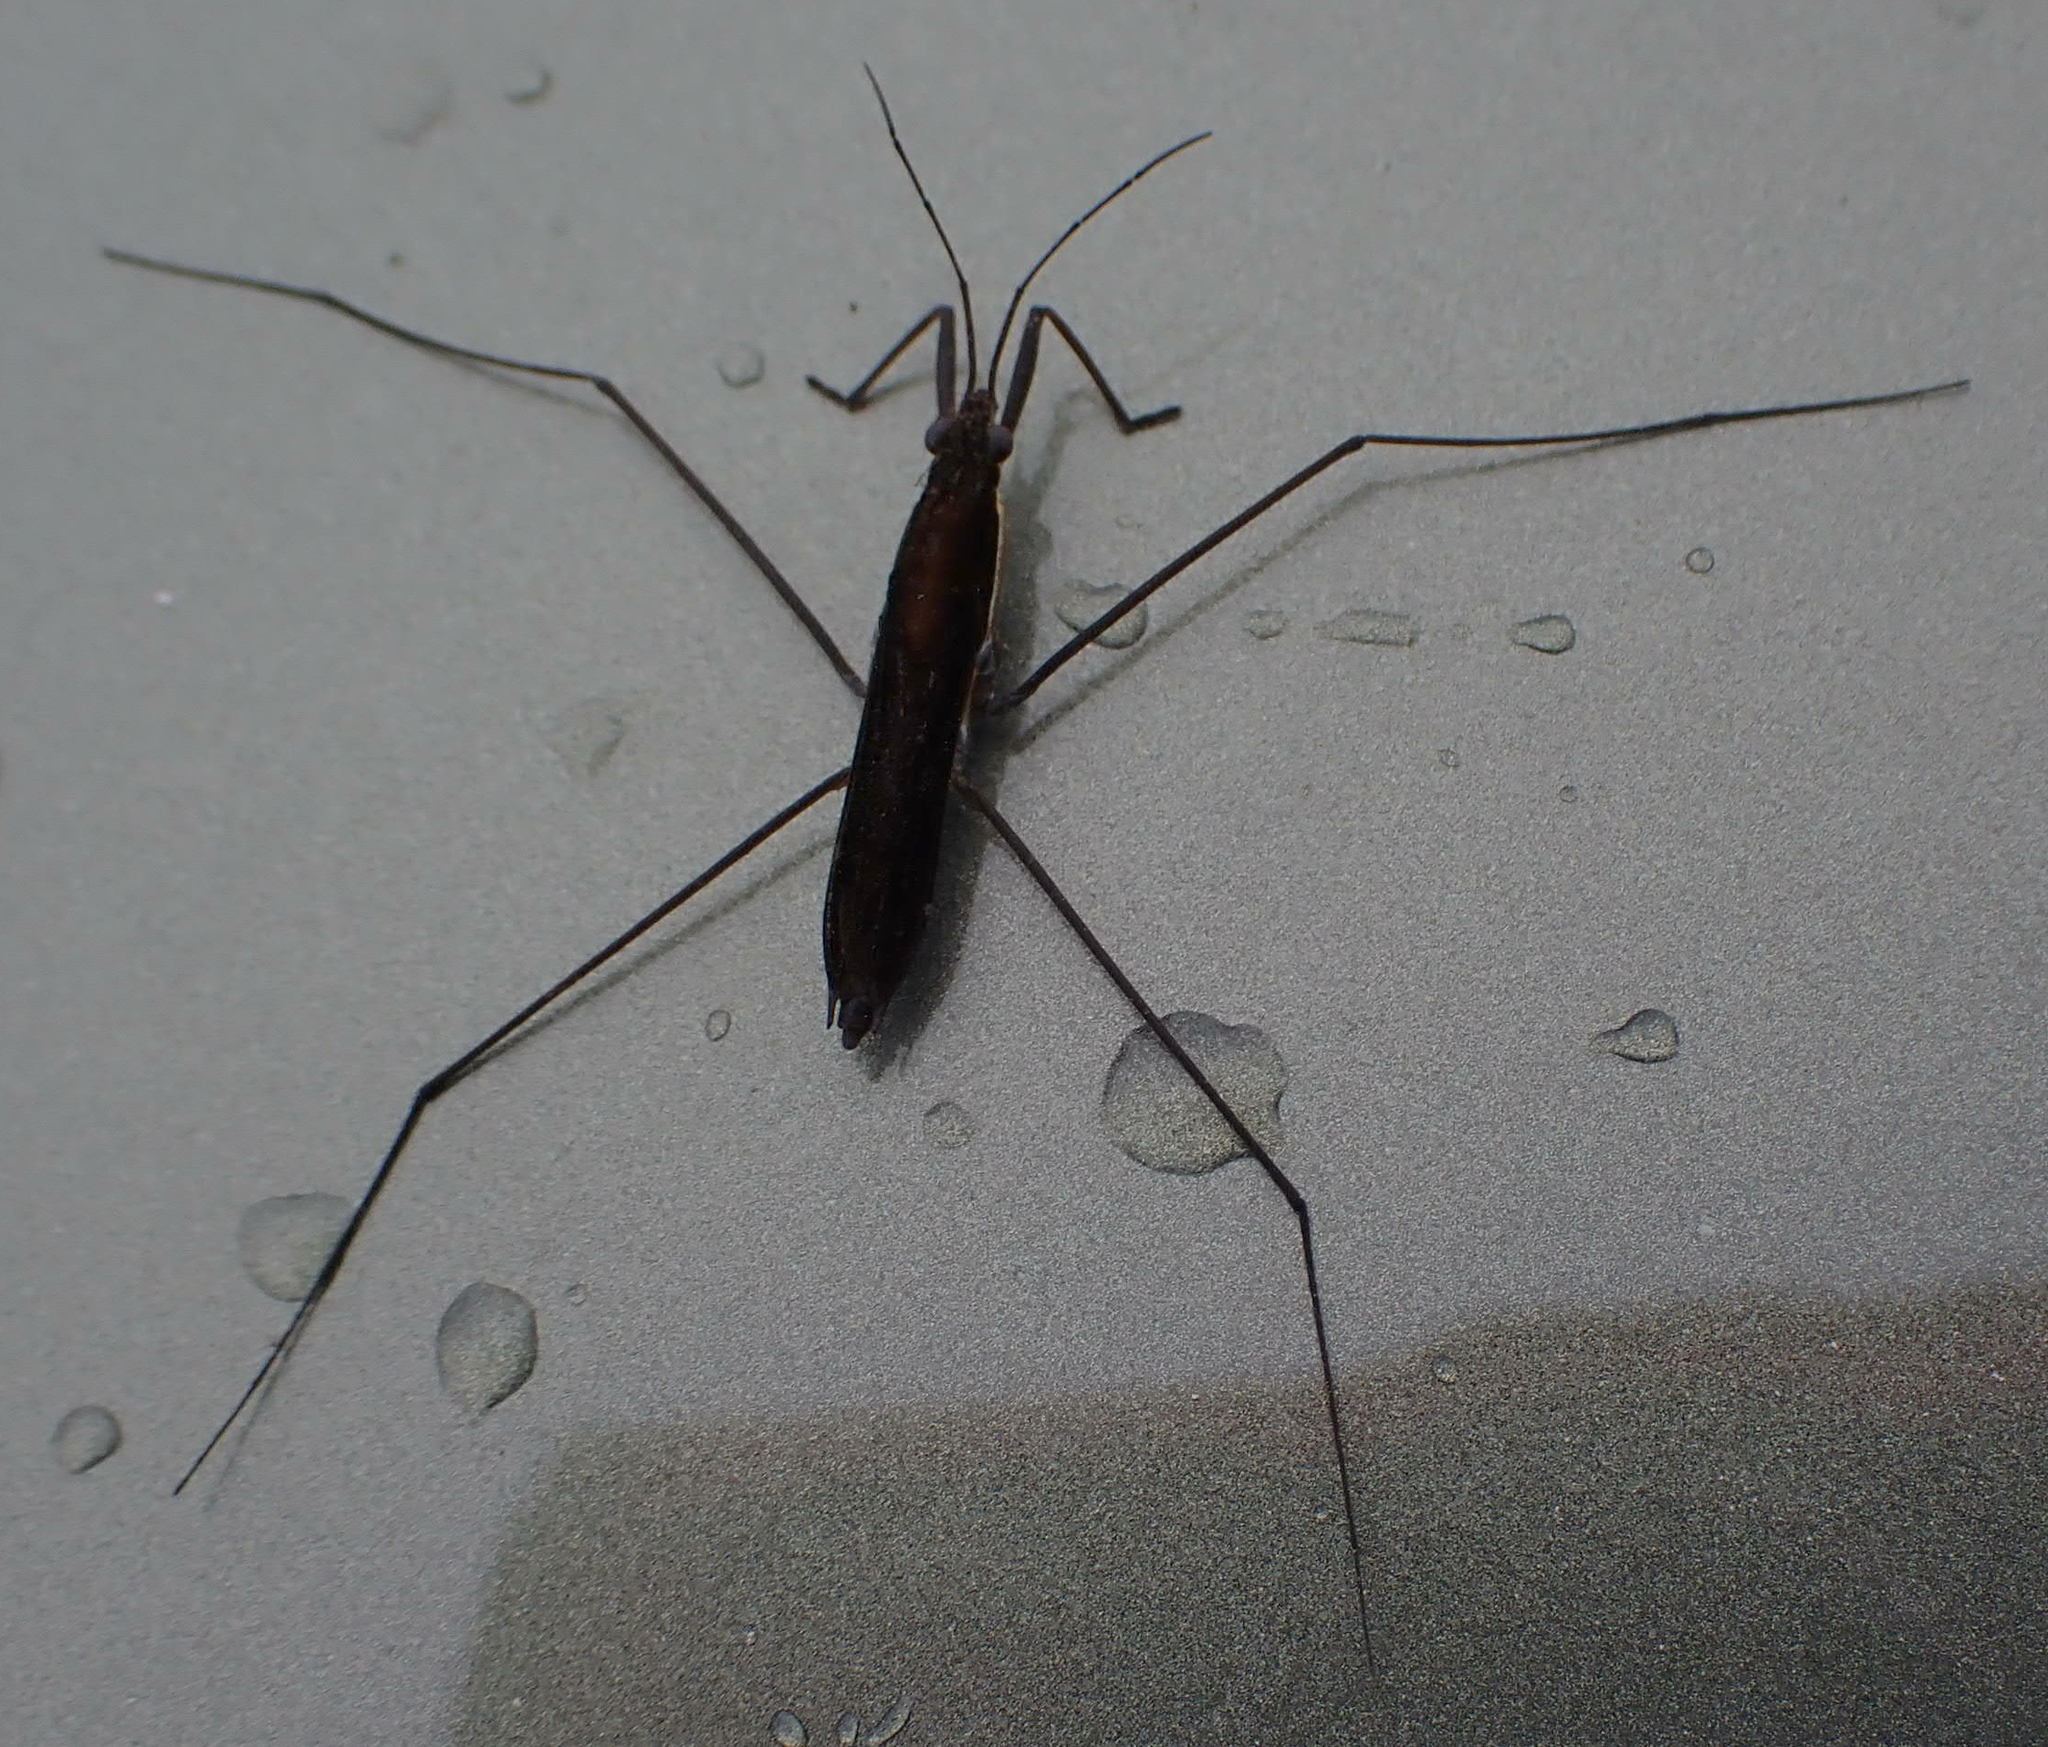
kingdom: Animalia
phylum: Arthropoda
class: Insecta
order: Hemiptera
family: Gerridae
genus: Limnoporus
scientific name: Limnoporus dissortis
